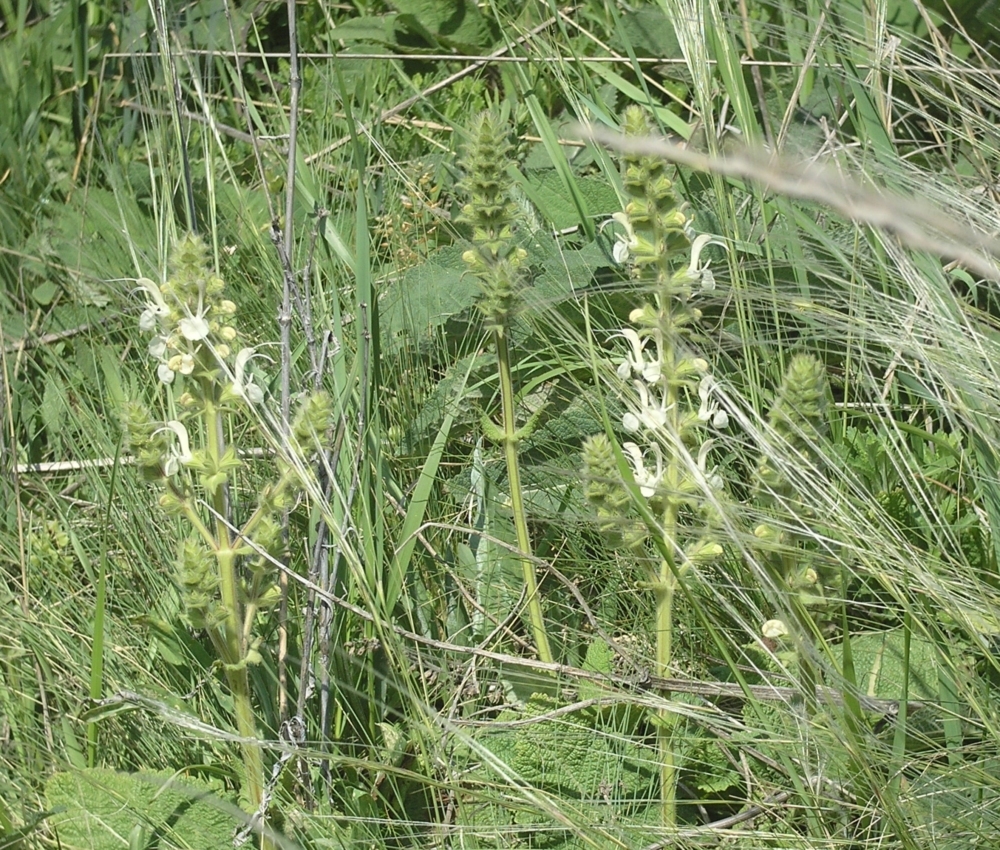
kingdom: Plantae
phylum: Tracheophyta
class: Magnoliopsida
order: Lamiales
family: Lamiaceae
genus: Salvia
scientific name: Salvia revoluta
